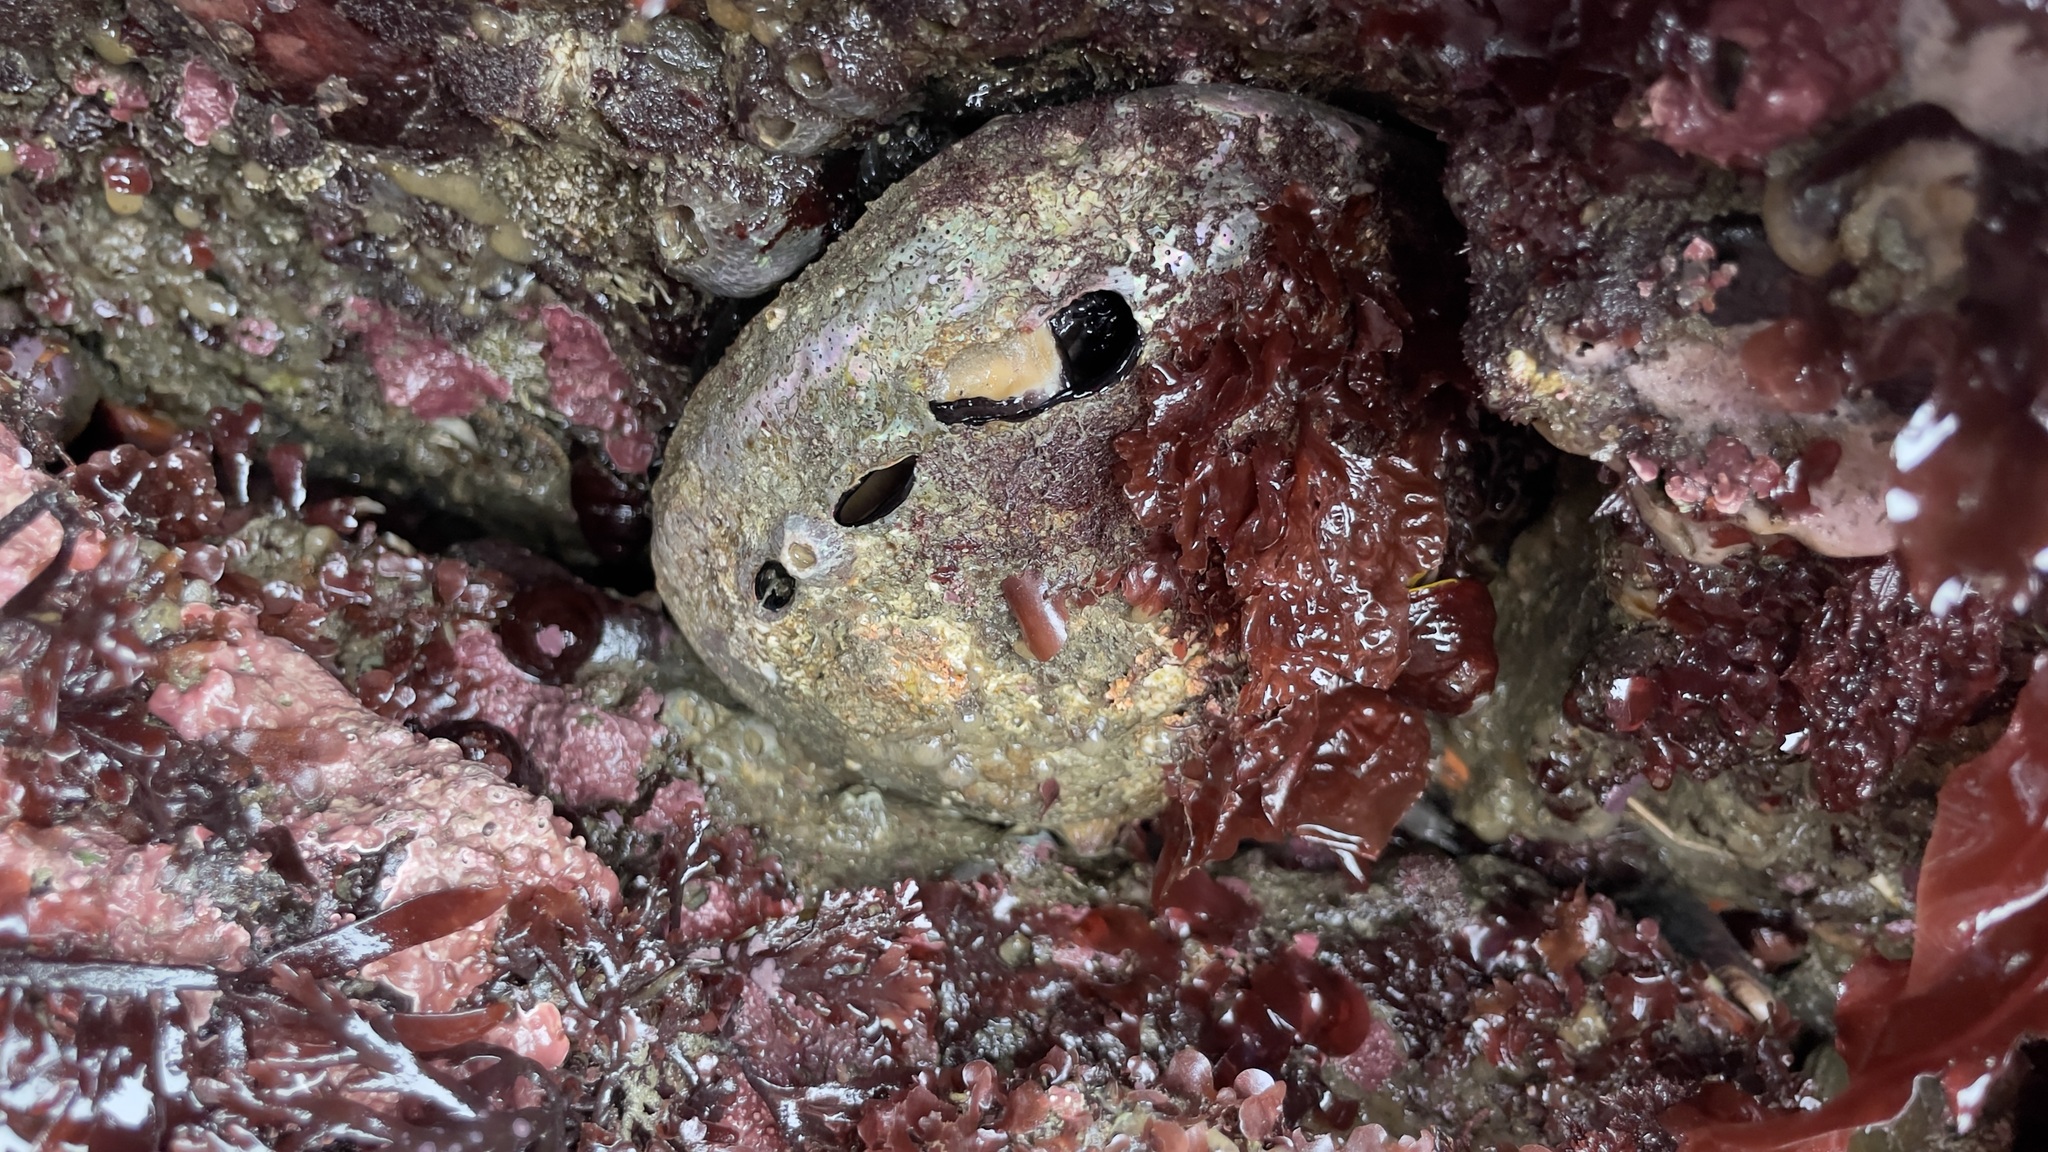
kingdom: Animalia
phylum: Mollusca
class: Gastropoda
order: Lepetellida
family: Haliotidae
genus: Haliotis
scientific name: Haliotis rufescens
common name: Red abalone
